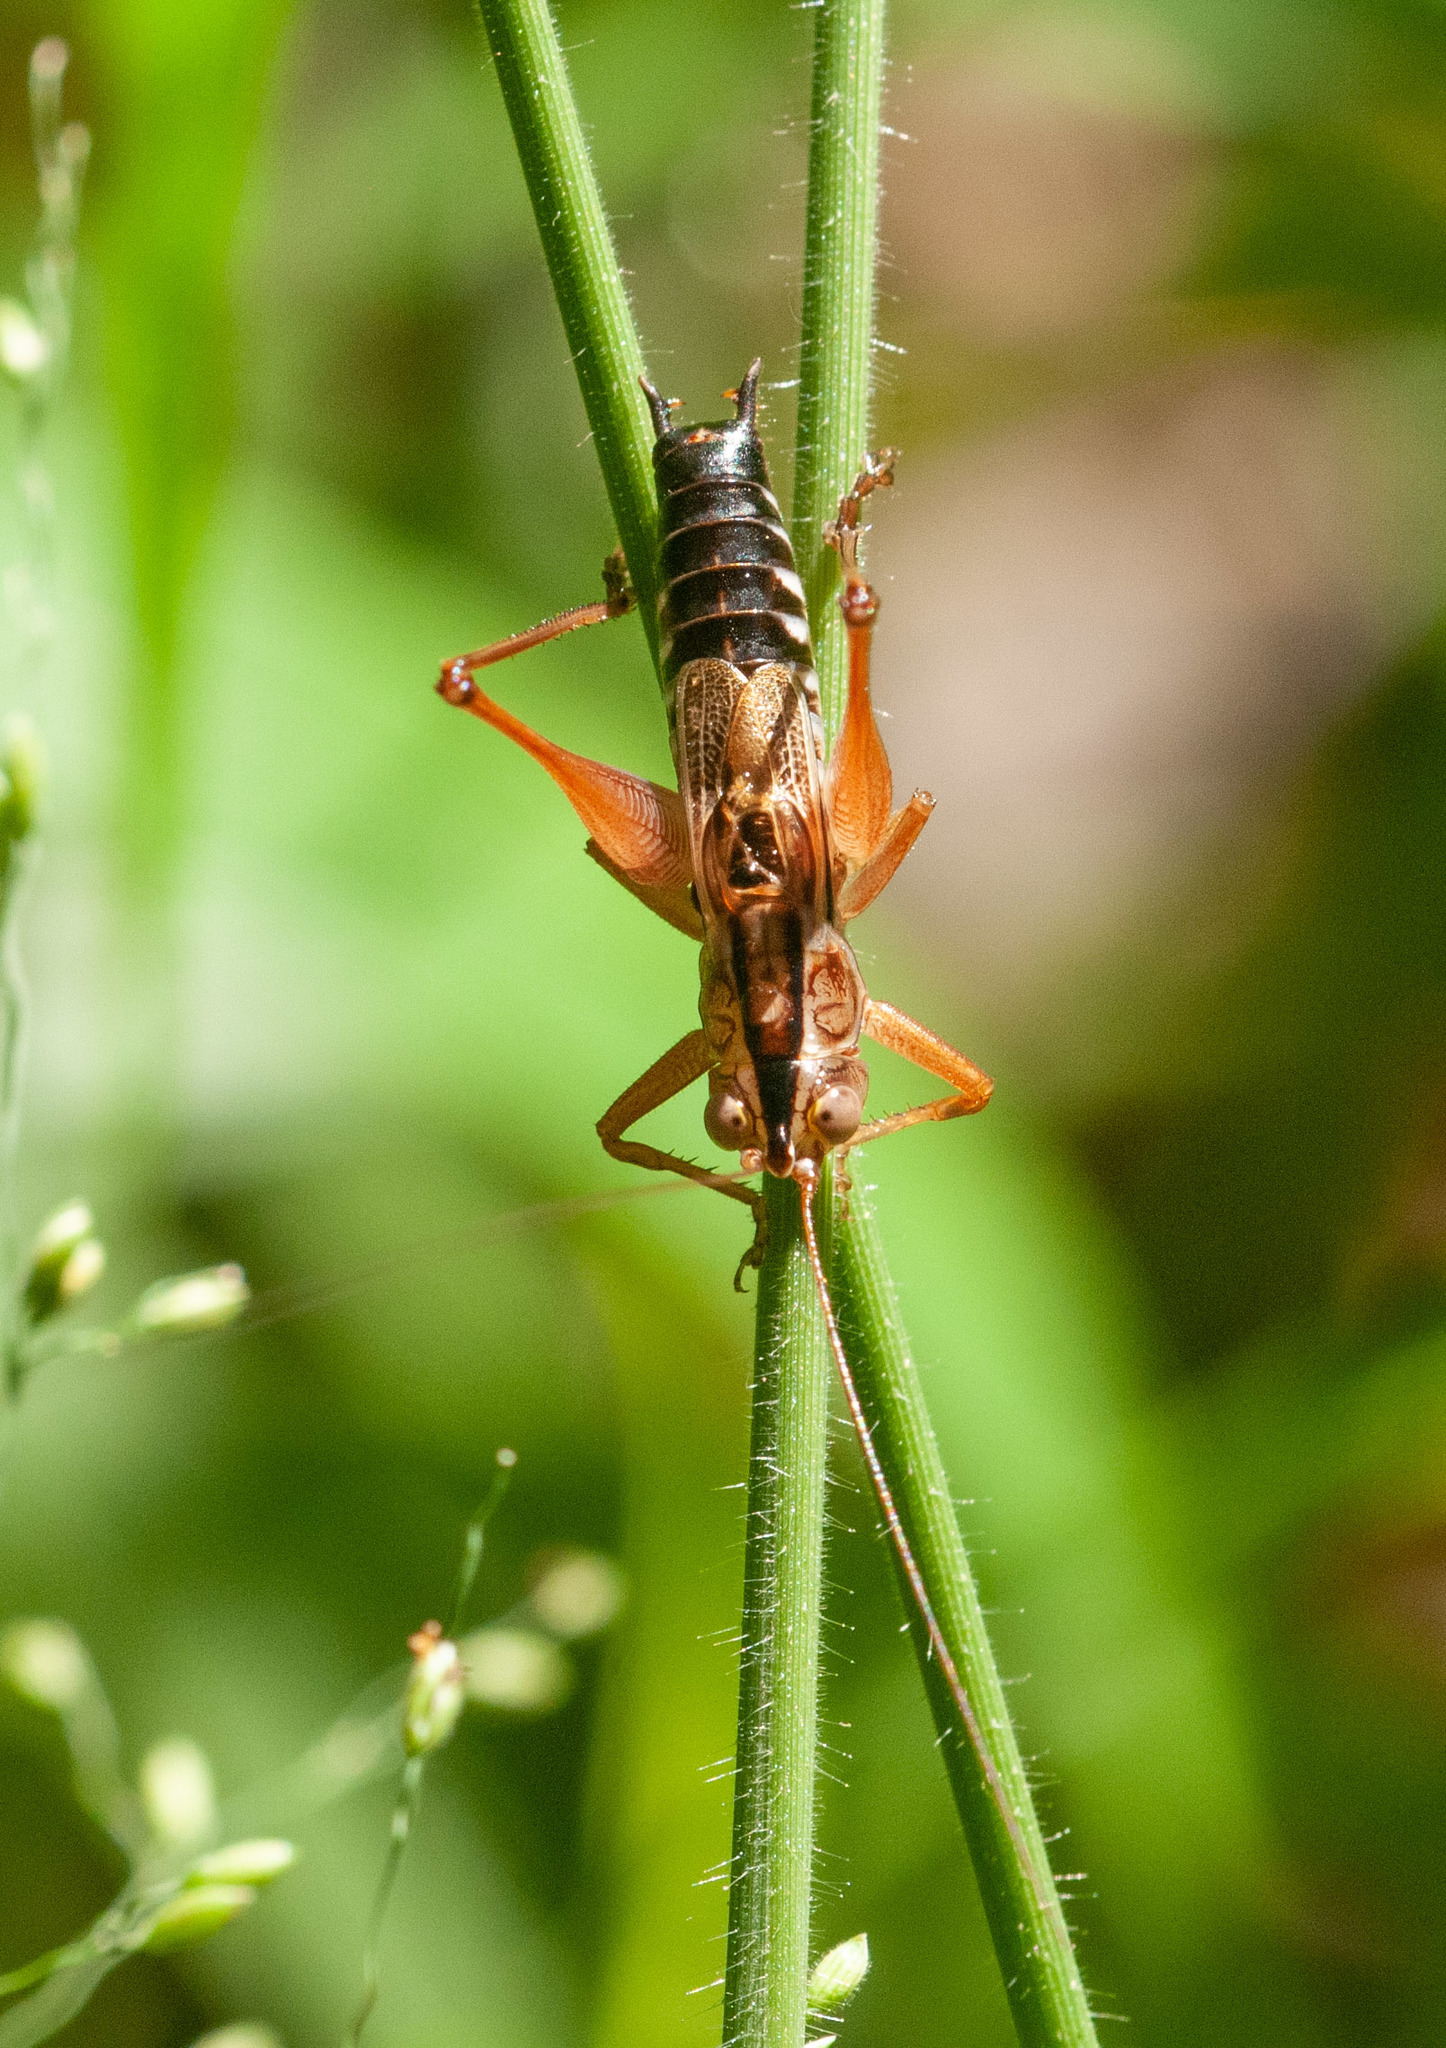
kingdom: Animalia
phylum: Arthropoda
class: Insecta
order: Orthoptera
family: Tettigoniidae
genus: Conocephalus
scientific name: Conocephalus semivittatus
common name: Blackish meadow katydid
